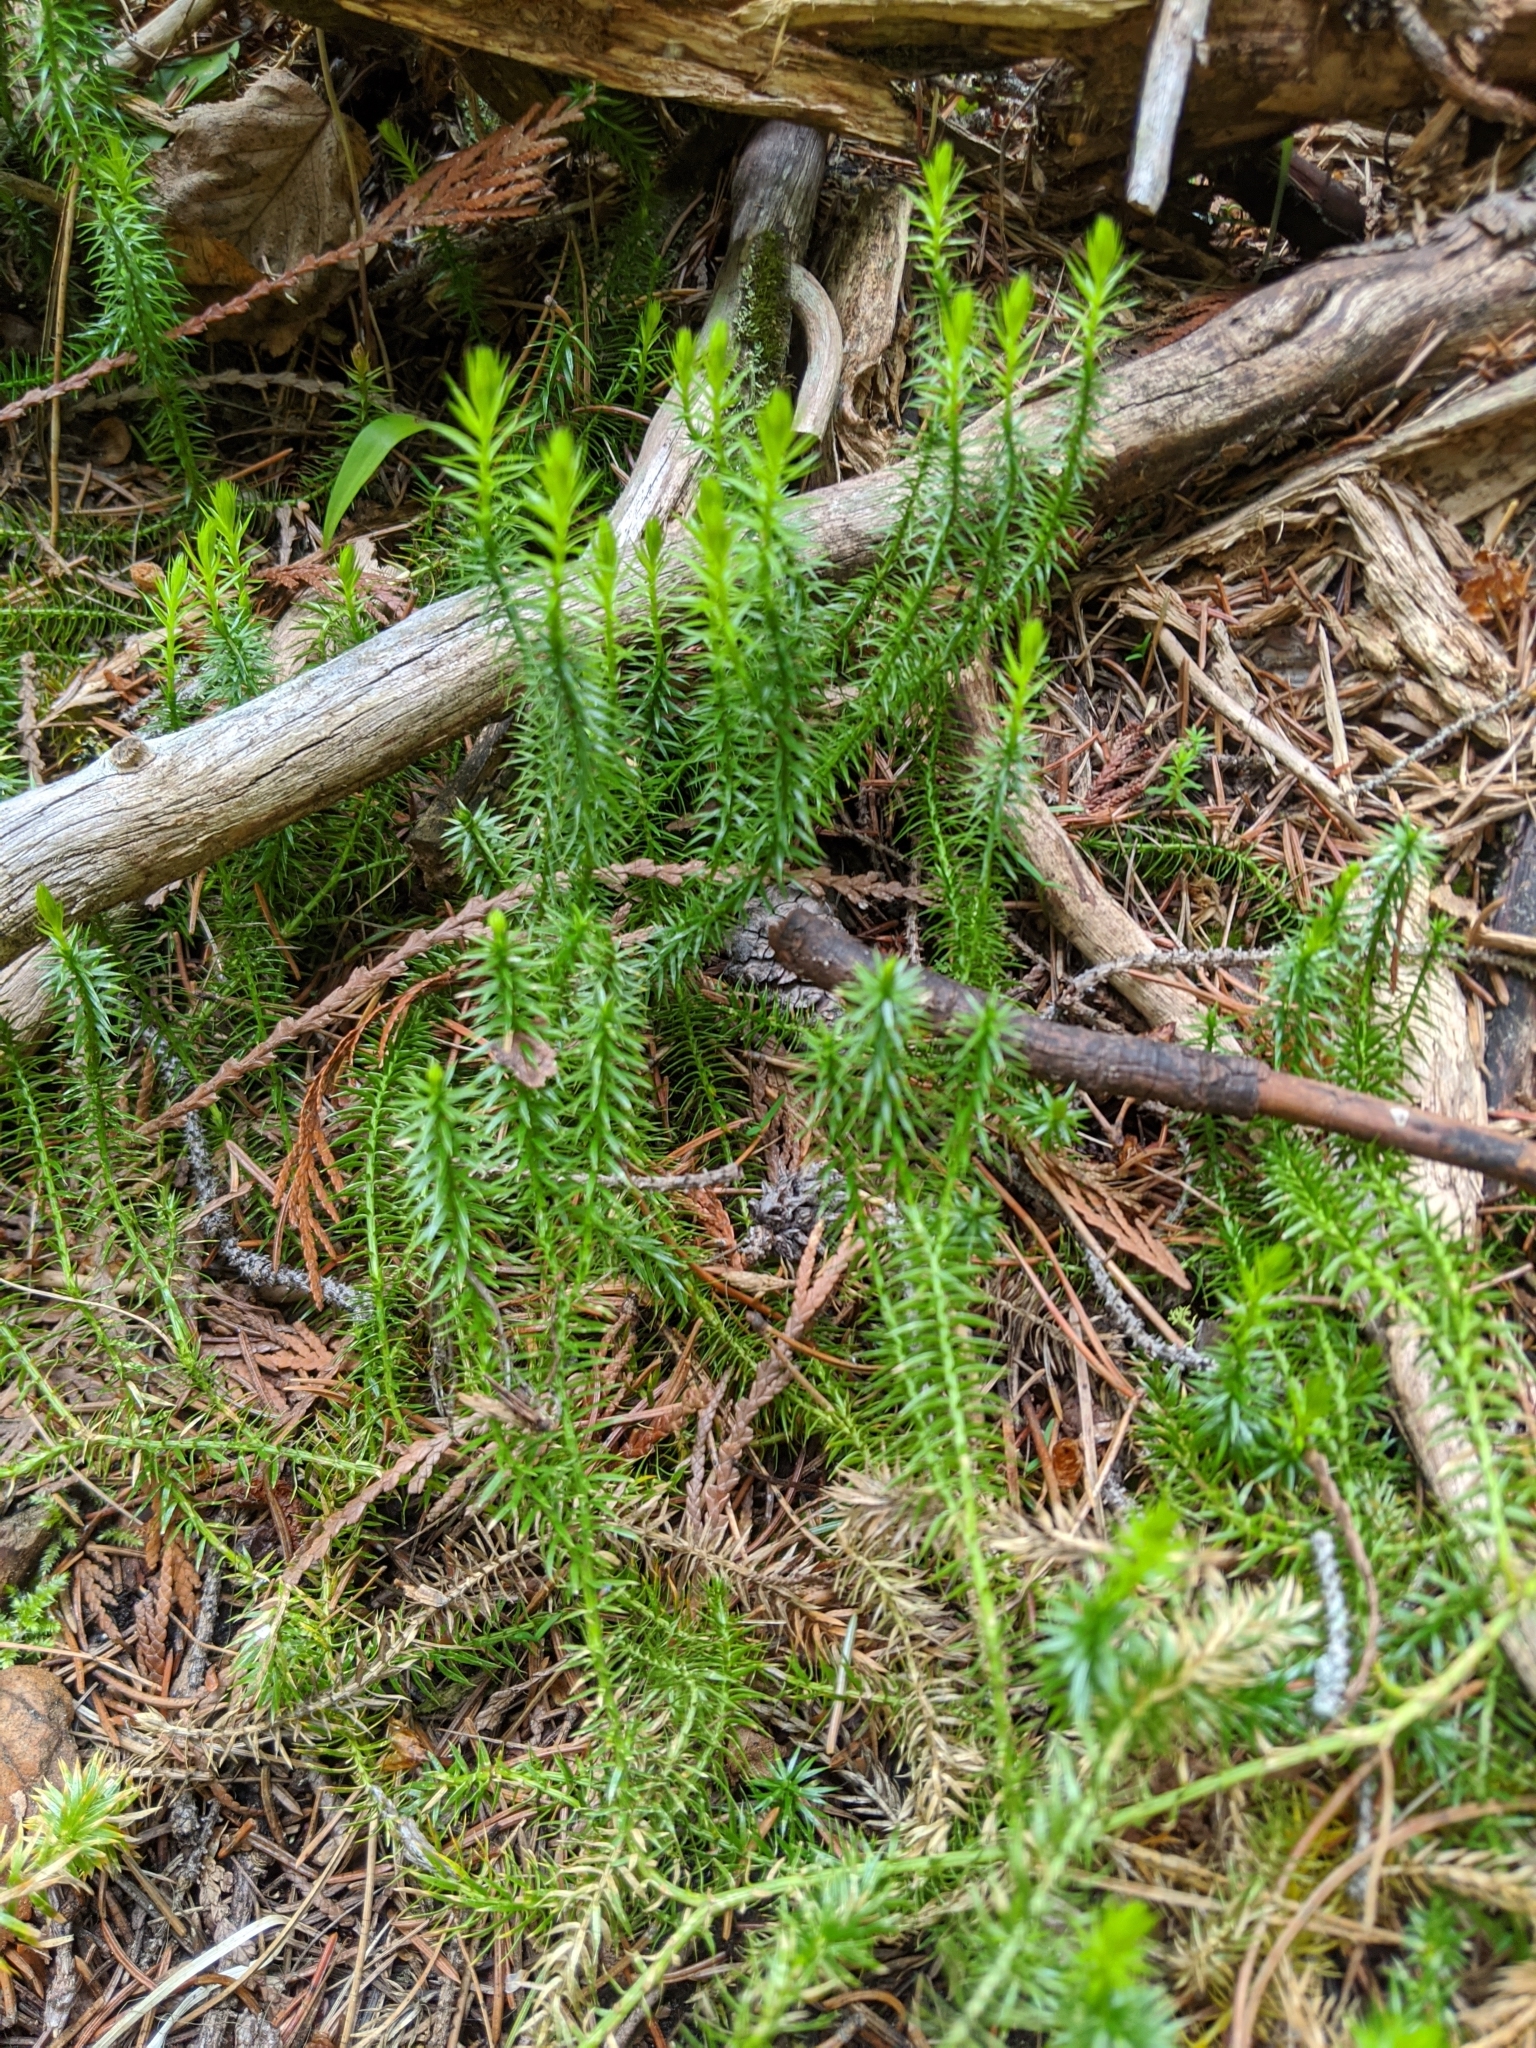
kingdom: Plantae
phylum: Tracheophyta
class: Lycopodiopsida
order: Lycopodiales
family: Lycopodiaceae
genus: Spinulum
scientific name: Spinulum annotinum
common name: Interrupted club-moss
